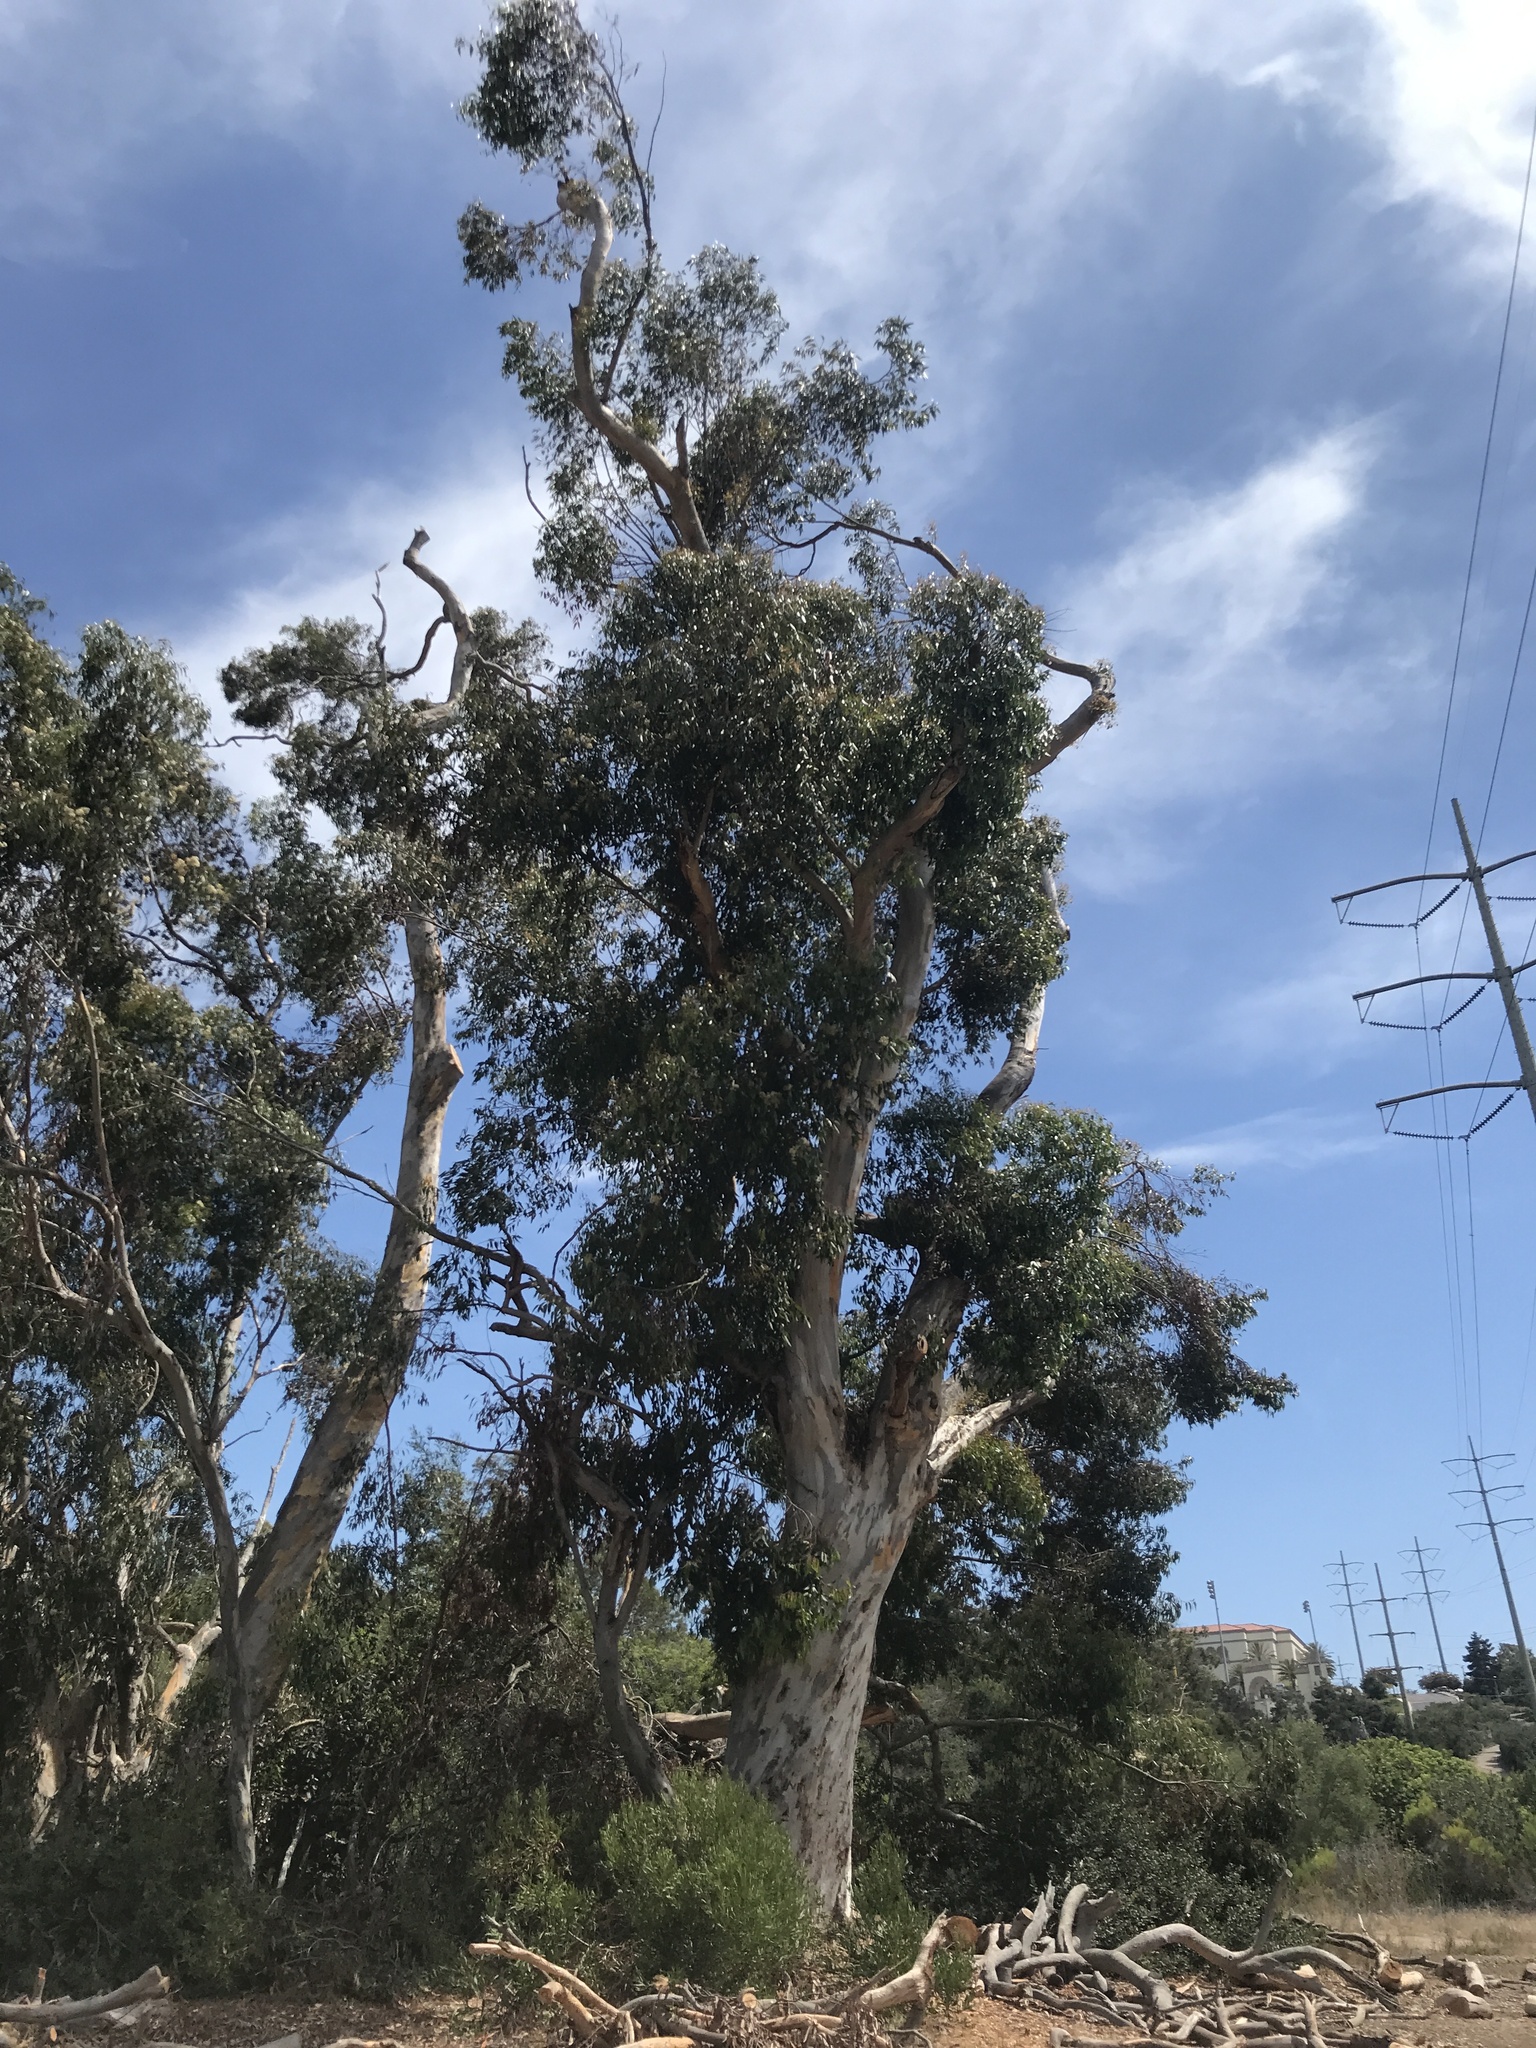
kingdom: Plantae
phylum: Tracheophyta
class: Magnoliopsida
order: Myrtales
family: Myrtaceae
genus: Eucalyptus
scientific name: Eucalyptus cladocalyx
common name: Sugargum
